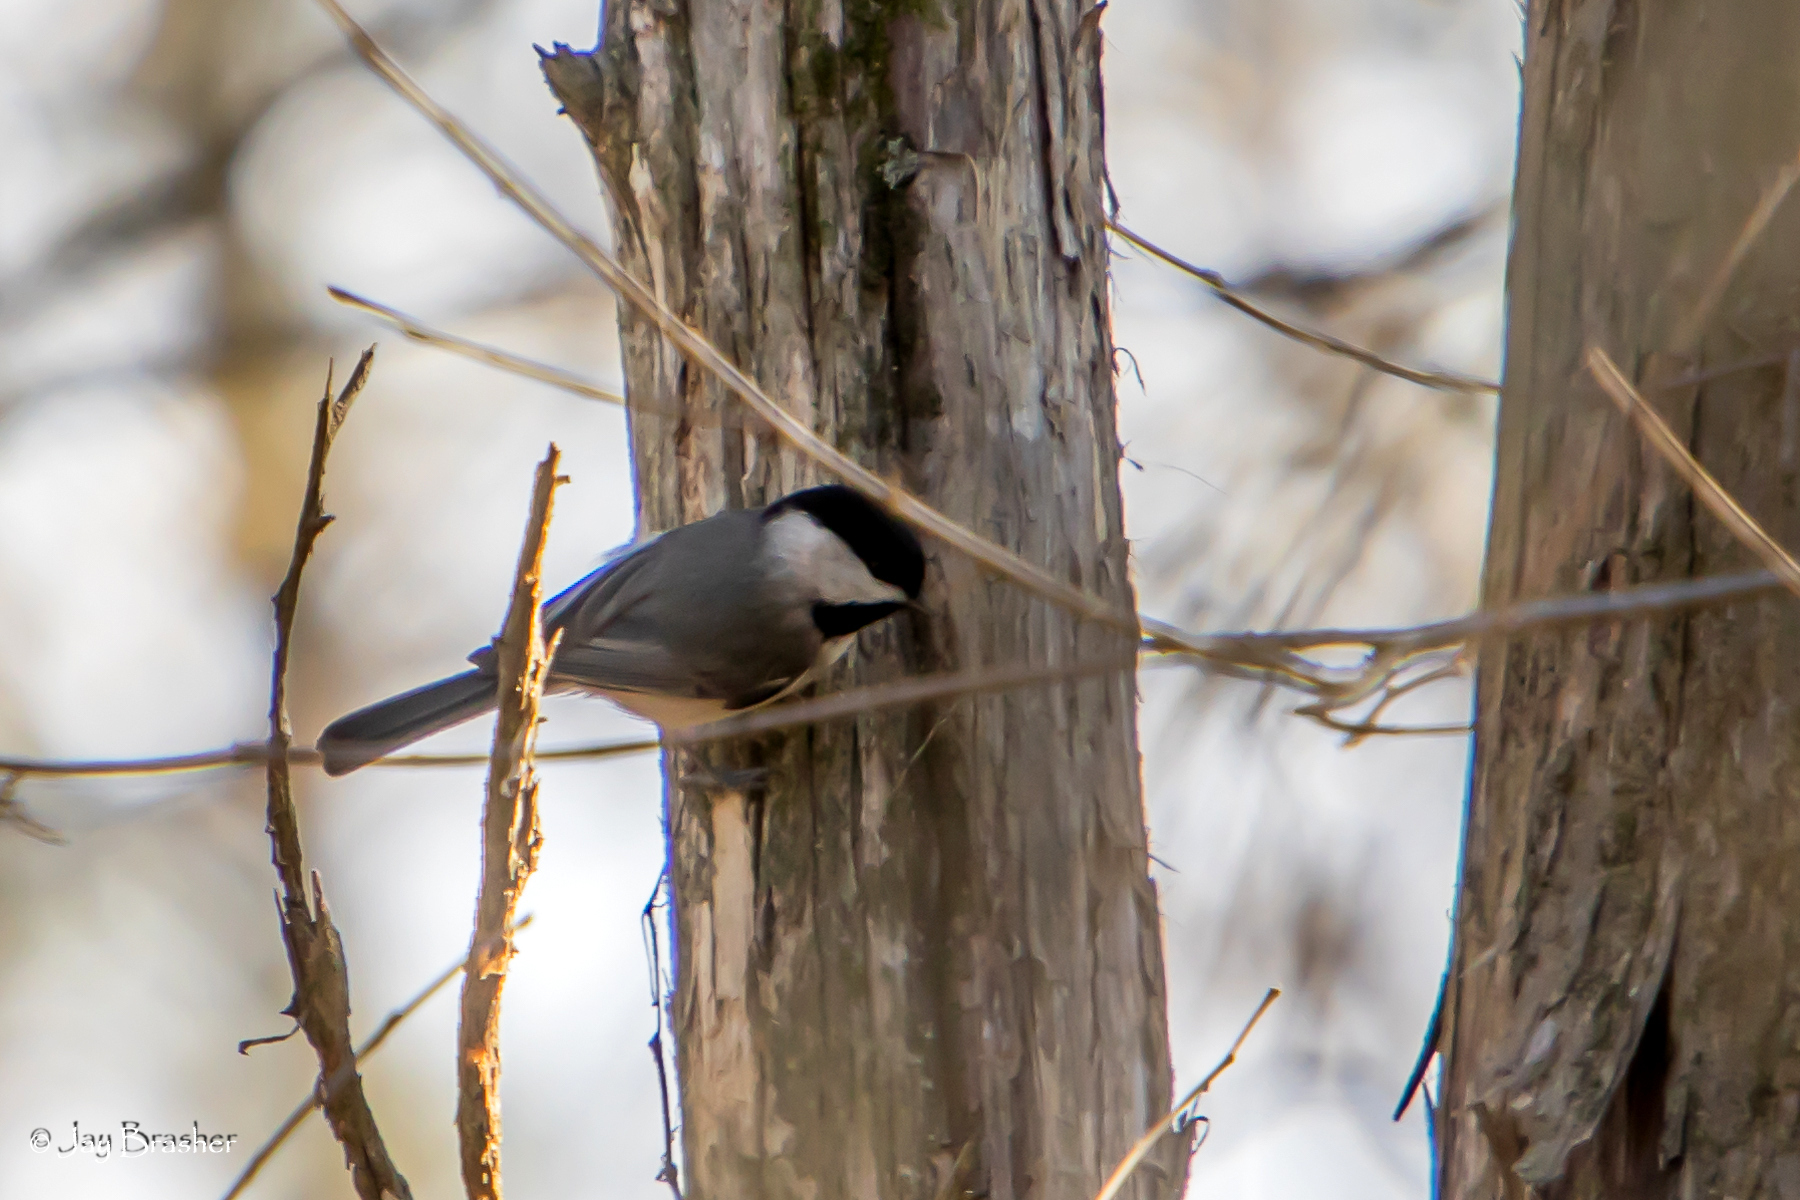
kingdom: Animalia
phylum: Chordata
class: Aves
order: Passeriformes
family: Paridae
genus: Poecile
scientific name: Poecile carolinensis
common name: Carolina chickadee
